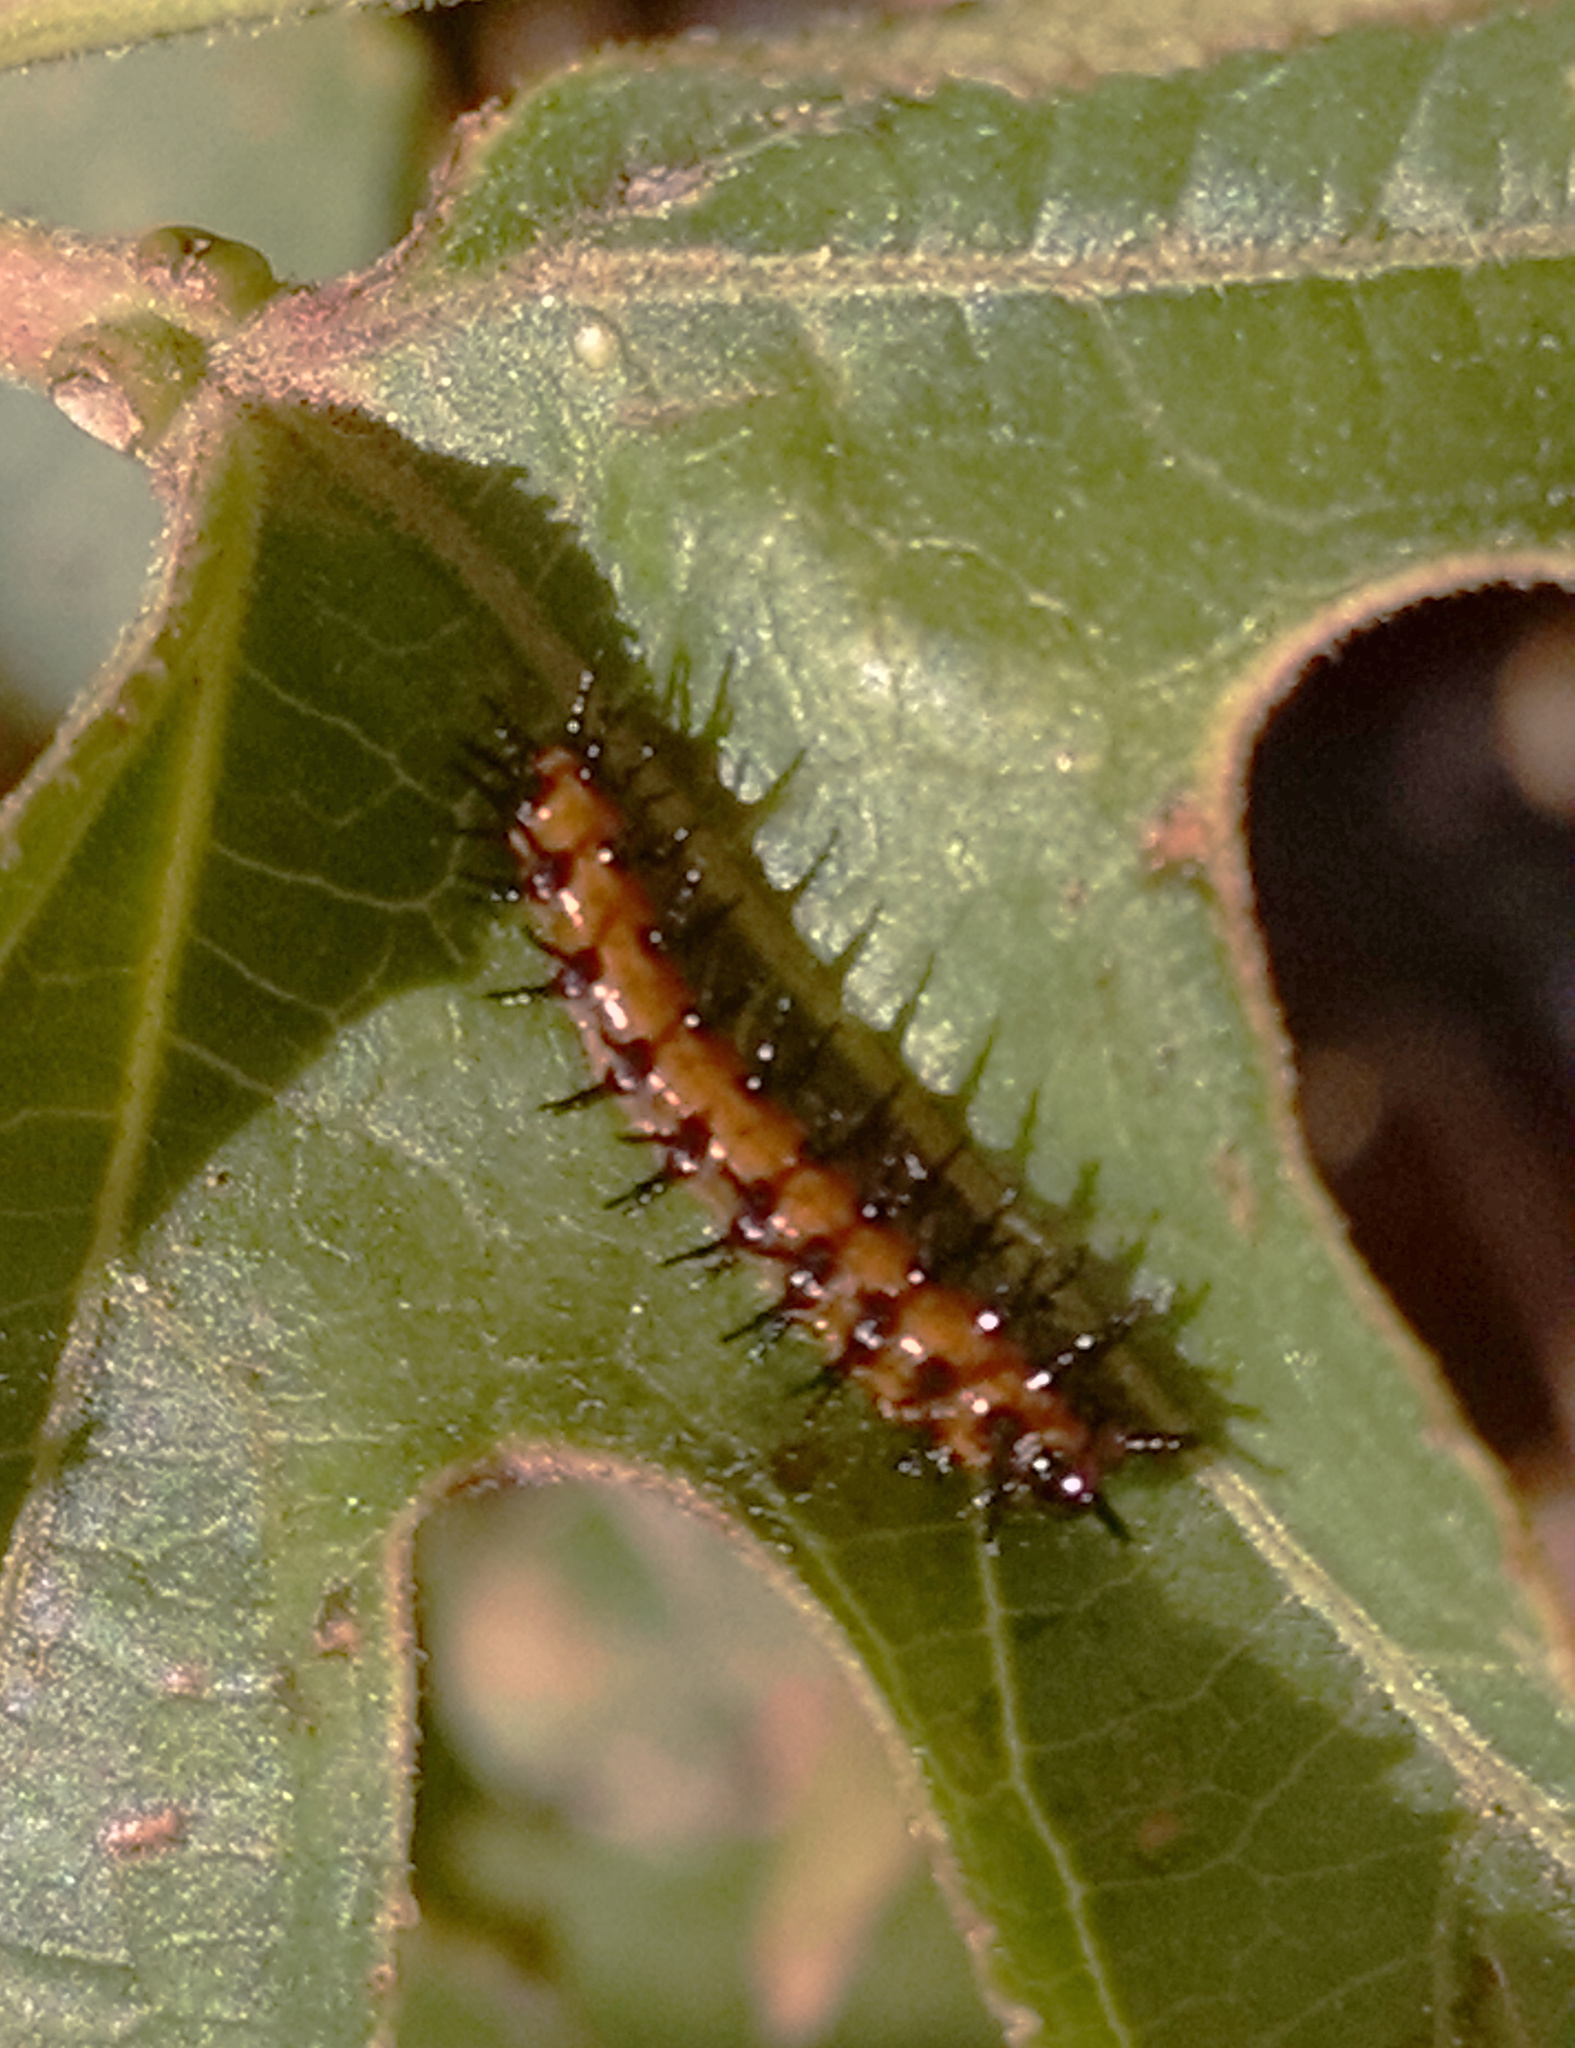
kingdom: Animalia
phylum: Arthropoda
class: Insecta
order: Lepidoptera
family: Nymphalidae
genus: Dione
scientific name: Dione vanillae
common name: Gulf fritillary
